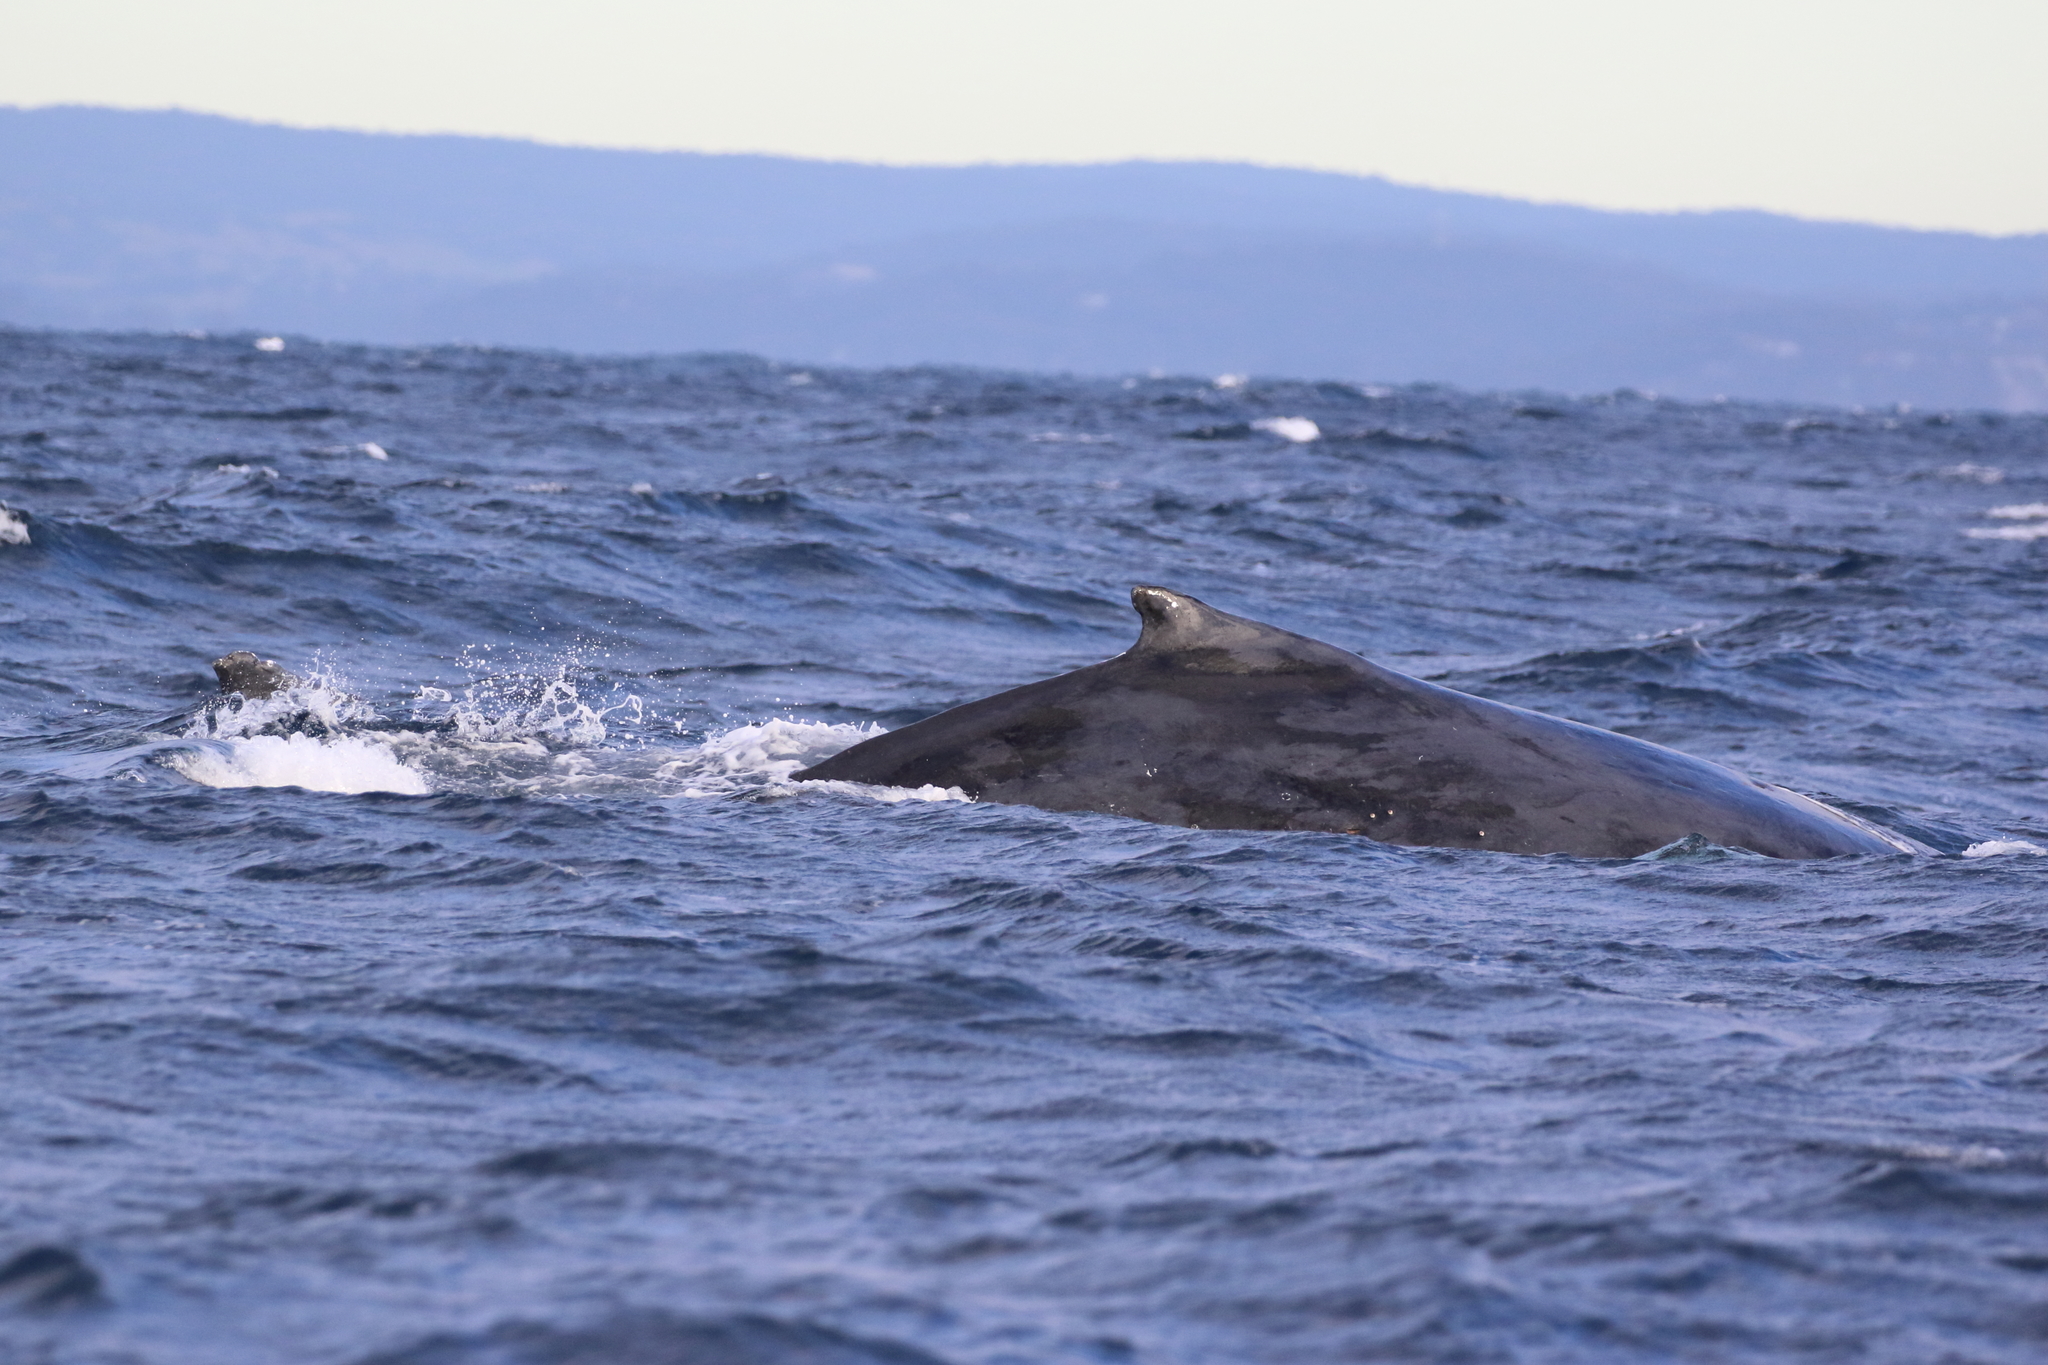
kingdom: Animalia
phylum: Chordata
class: Mammalia
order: Cetacea
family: Balaenopteridae
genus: Megaptera
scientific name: Megaptera novaeangliae
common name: Humpback whale
